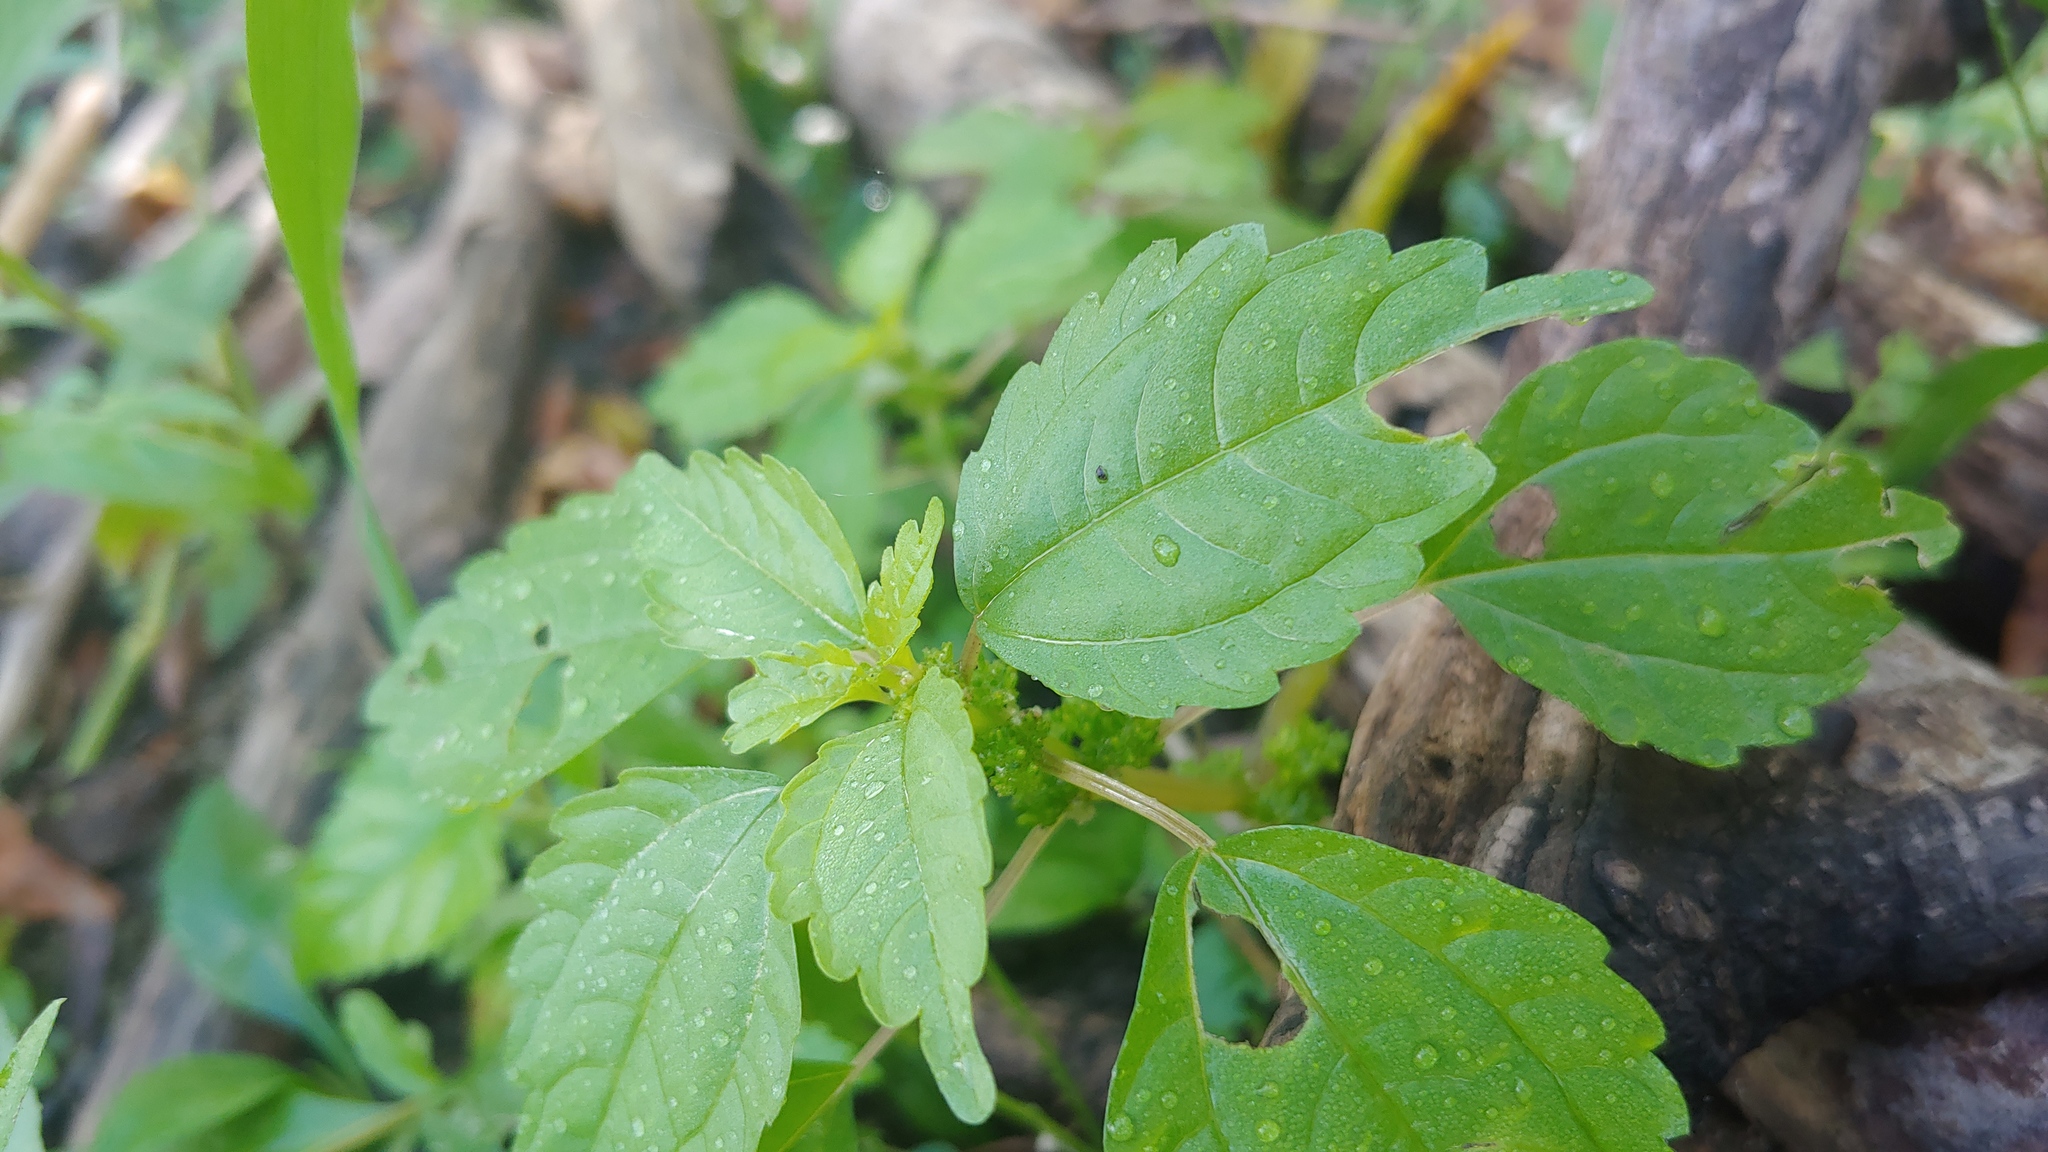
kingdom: Plantae
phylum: Tracheophyta
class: Magnoliopsida
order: Rosales
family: Urticaceae
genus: Pilea
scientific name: Pilea pumila
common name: Clearweed
